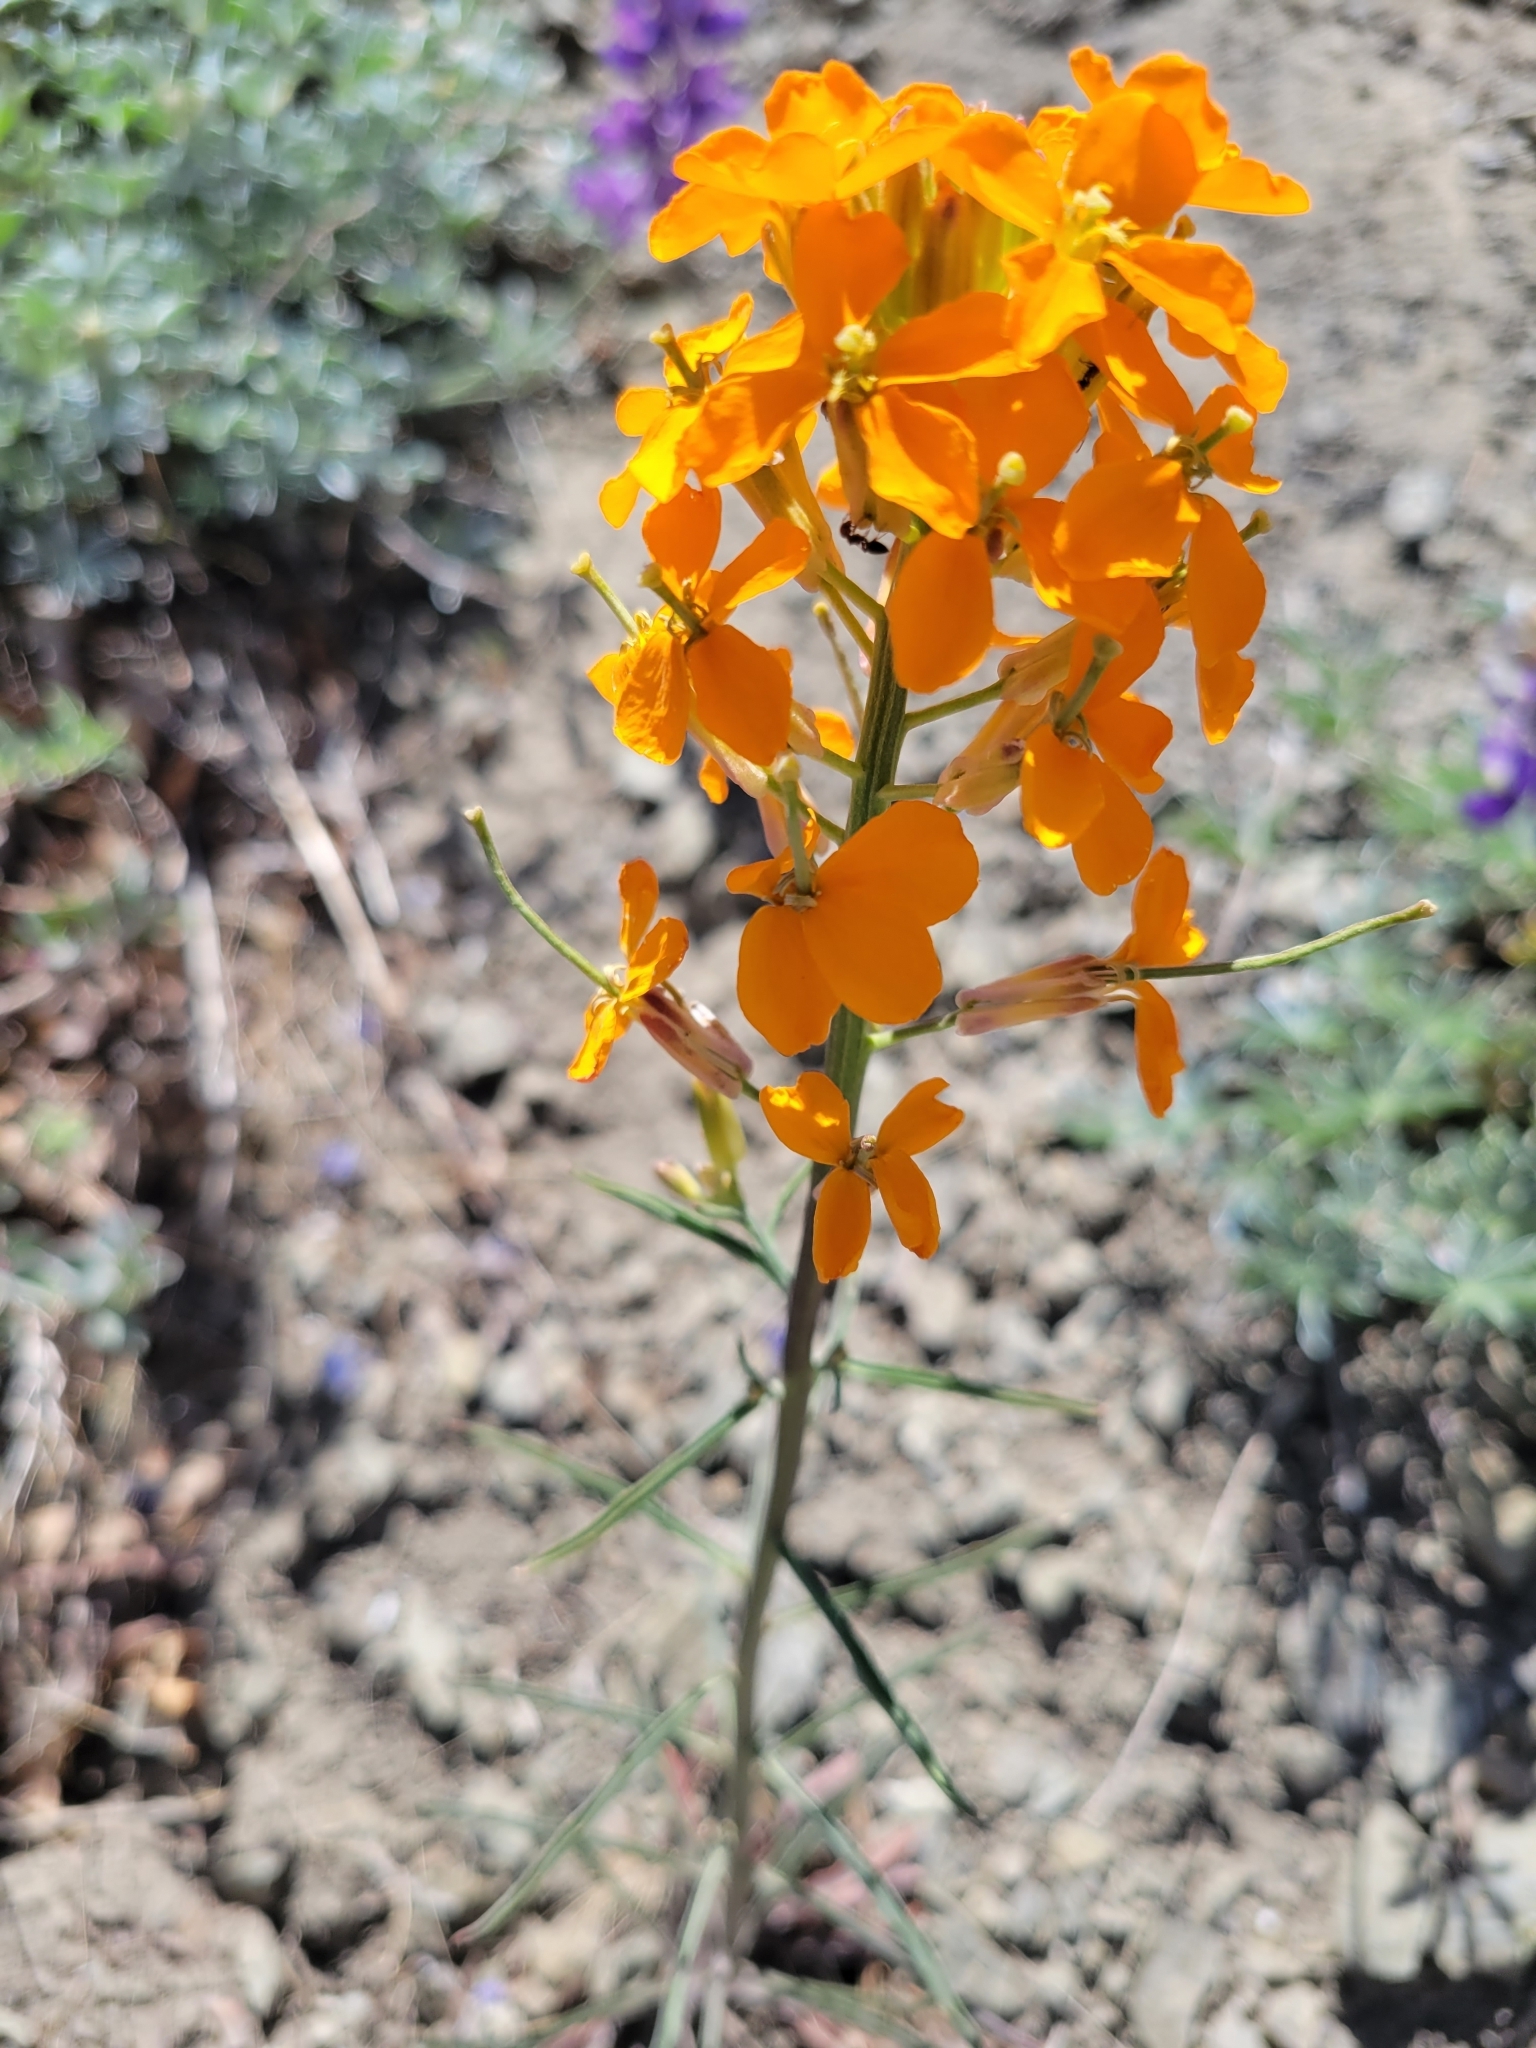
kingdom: Plantae
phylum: Tracheophyta
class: Magnoliopsida
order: Brassicales
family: Brassicaceae
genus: Erysimum
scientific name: Erysimum capitatum
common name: Western wallflower
